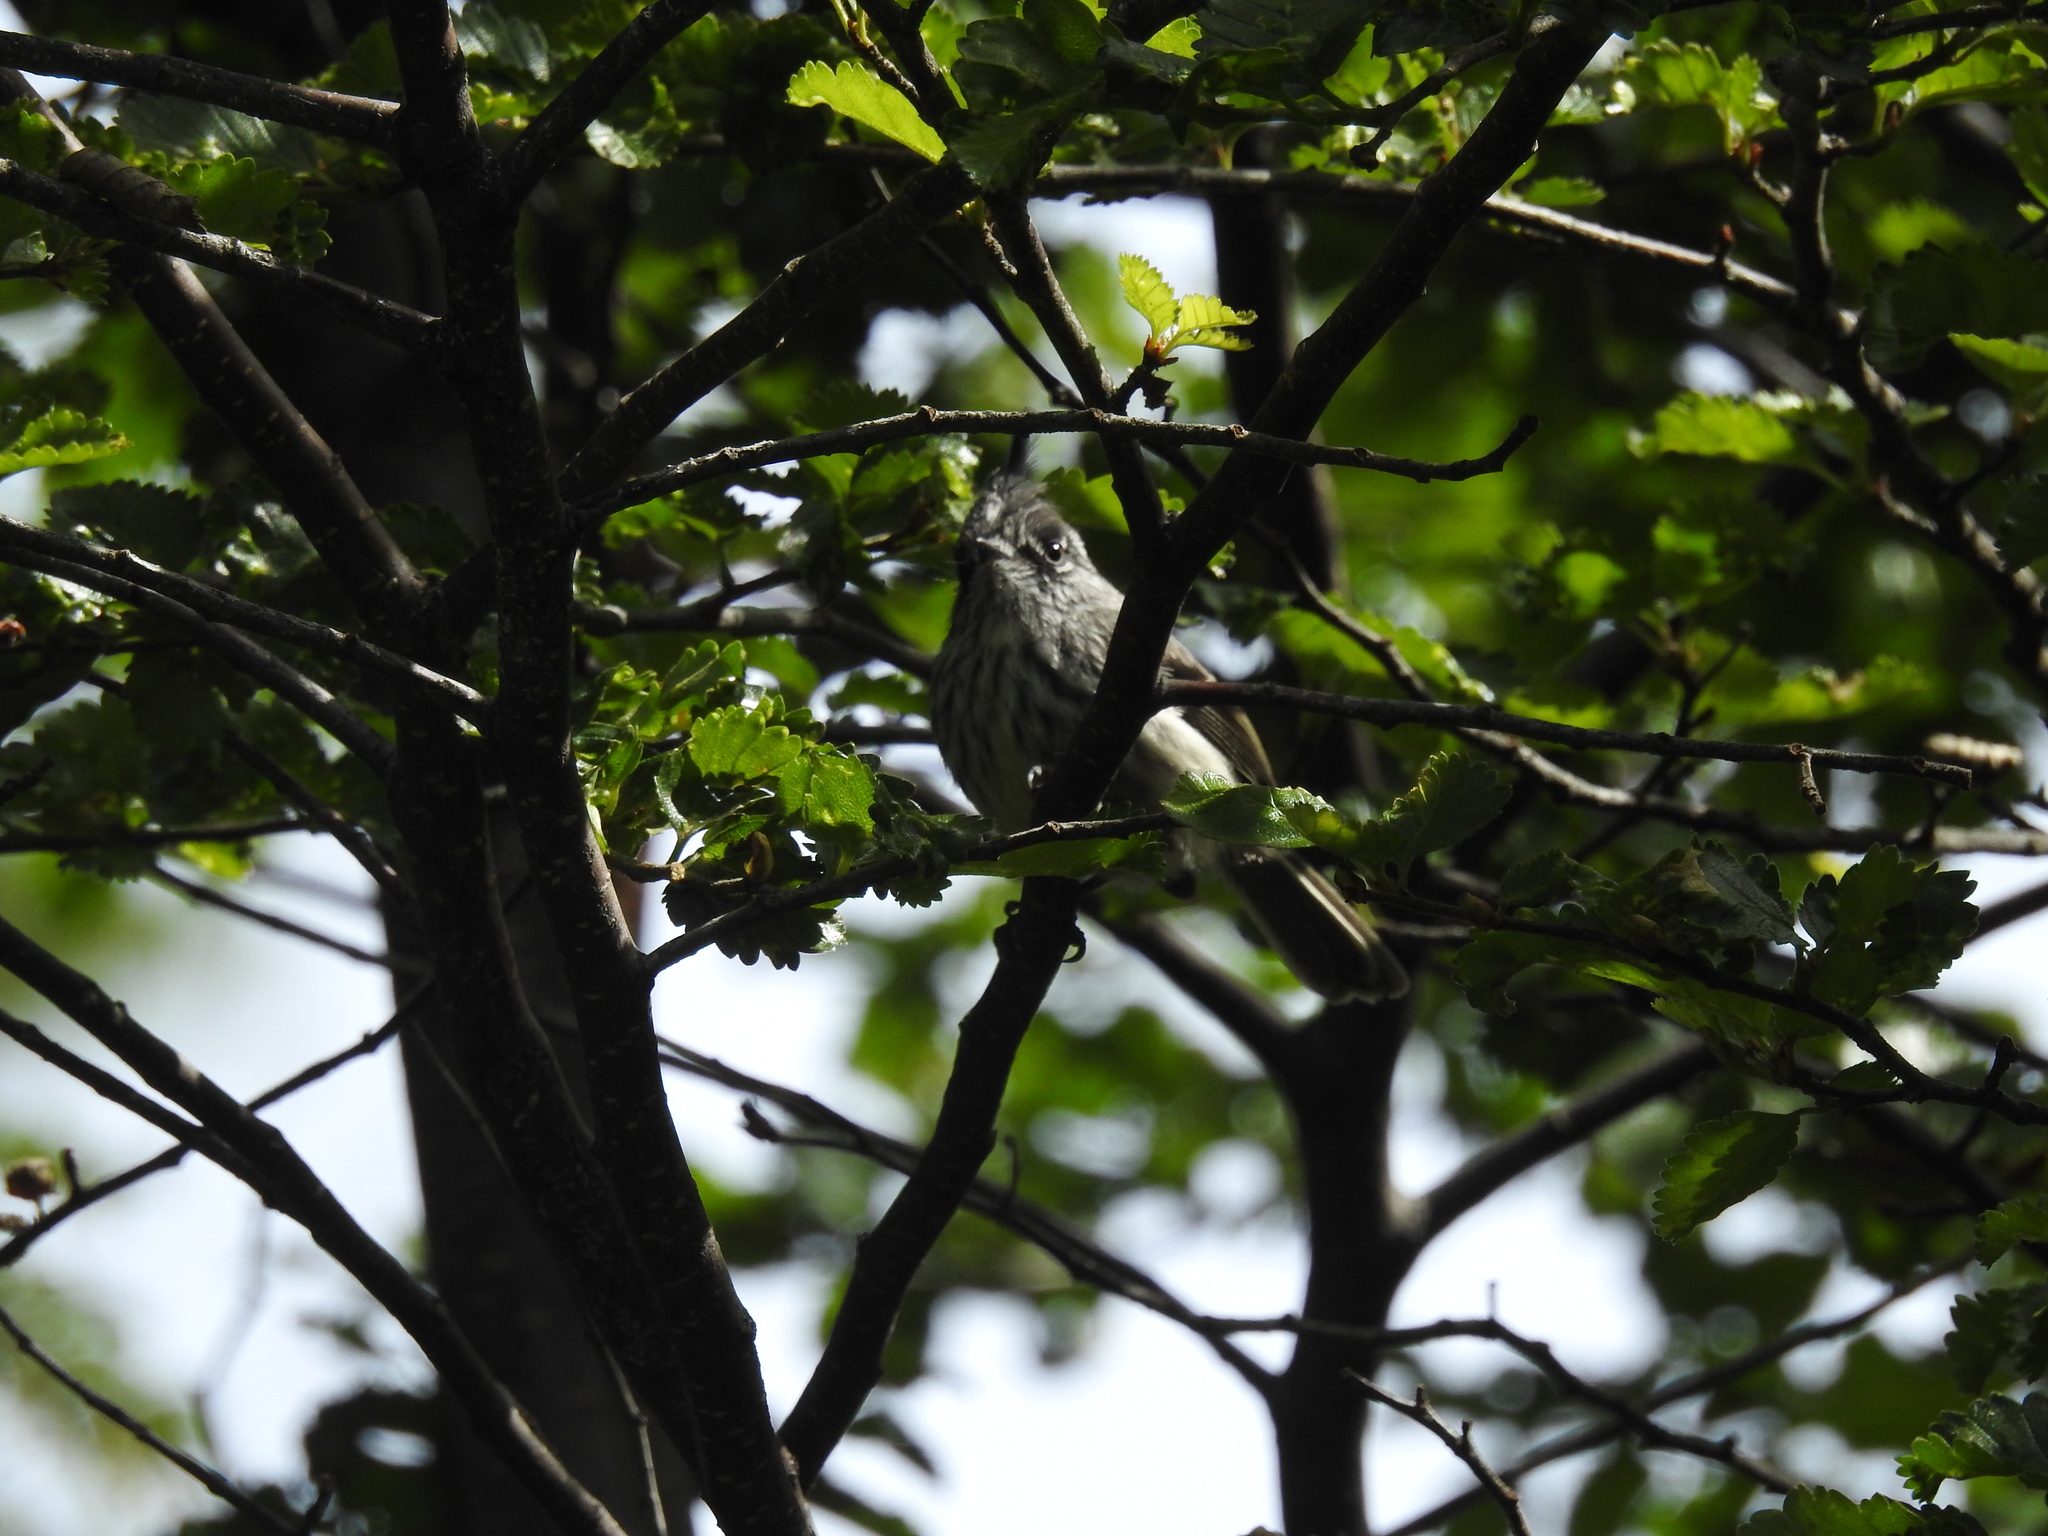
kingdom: Animalia
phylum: Chordata
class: Aves
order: Passeriformes
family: Tyrannidae
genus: Anairetes
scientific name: Anairetes parulus
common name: Tufted tit-tyrant
